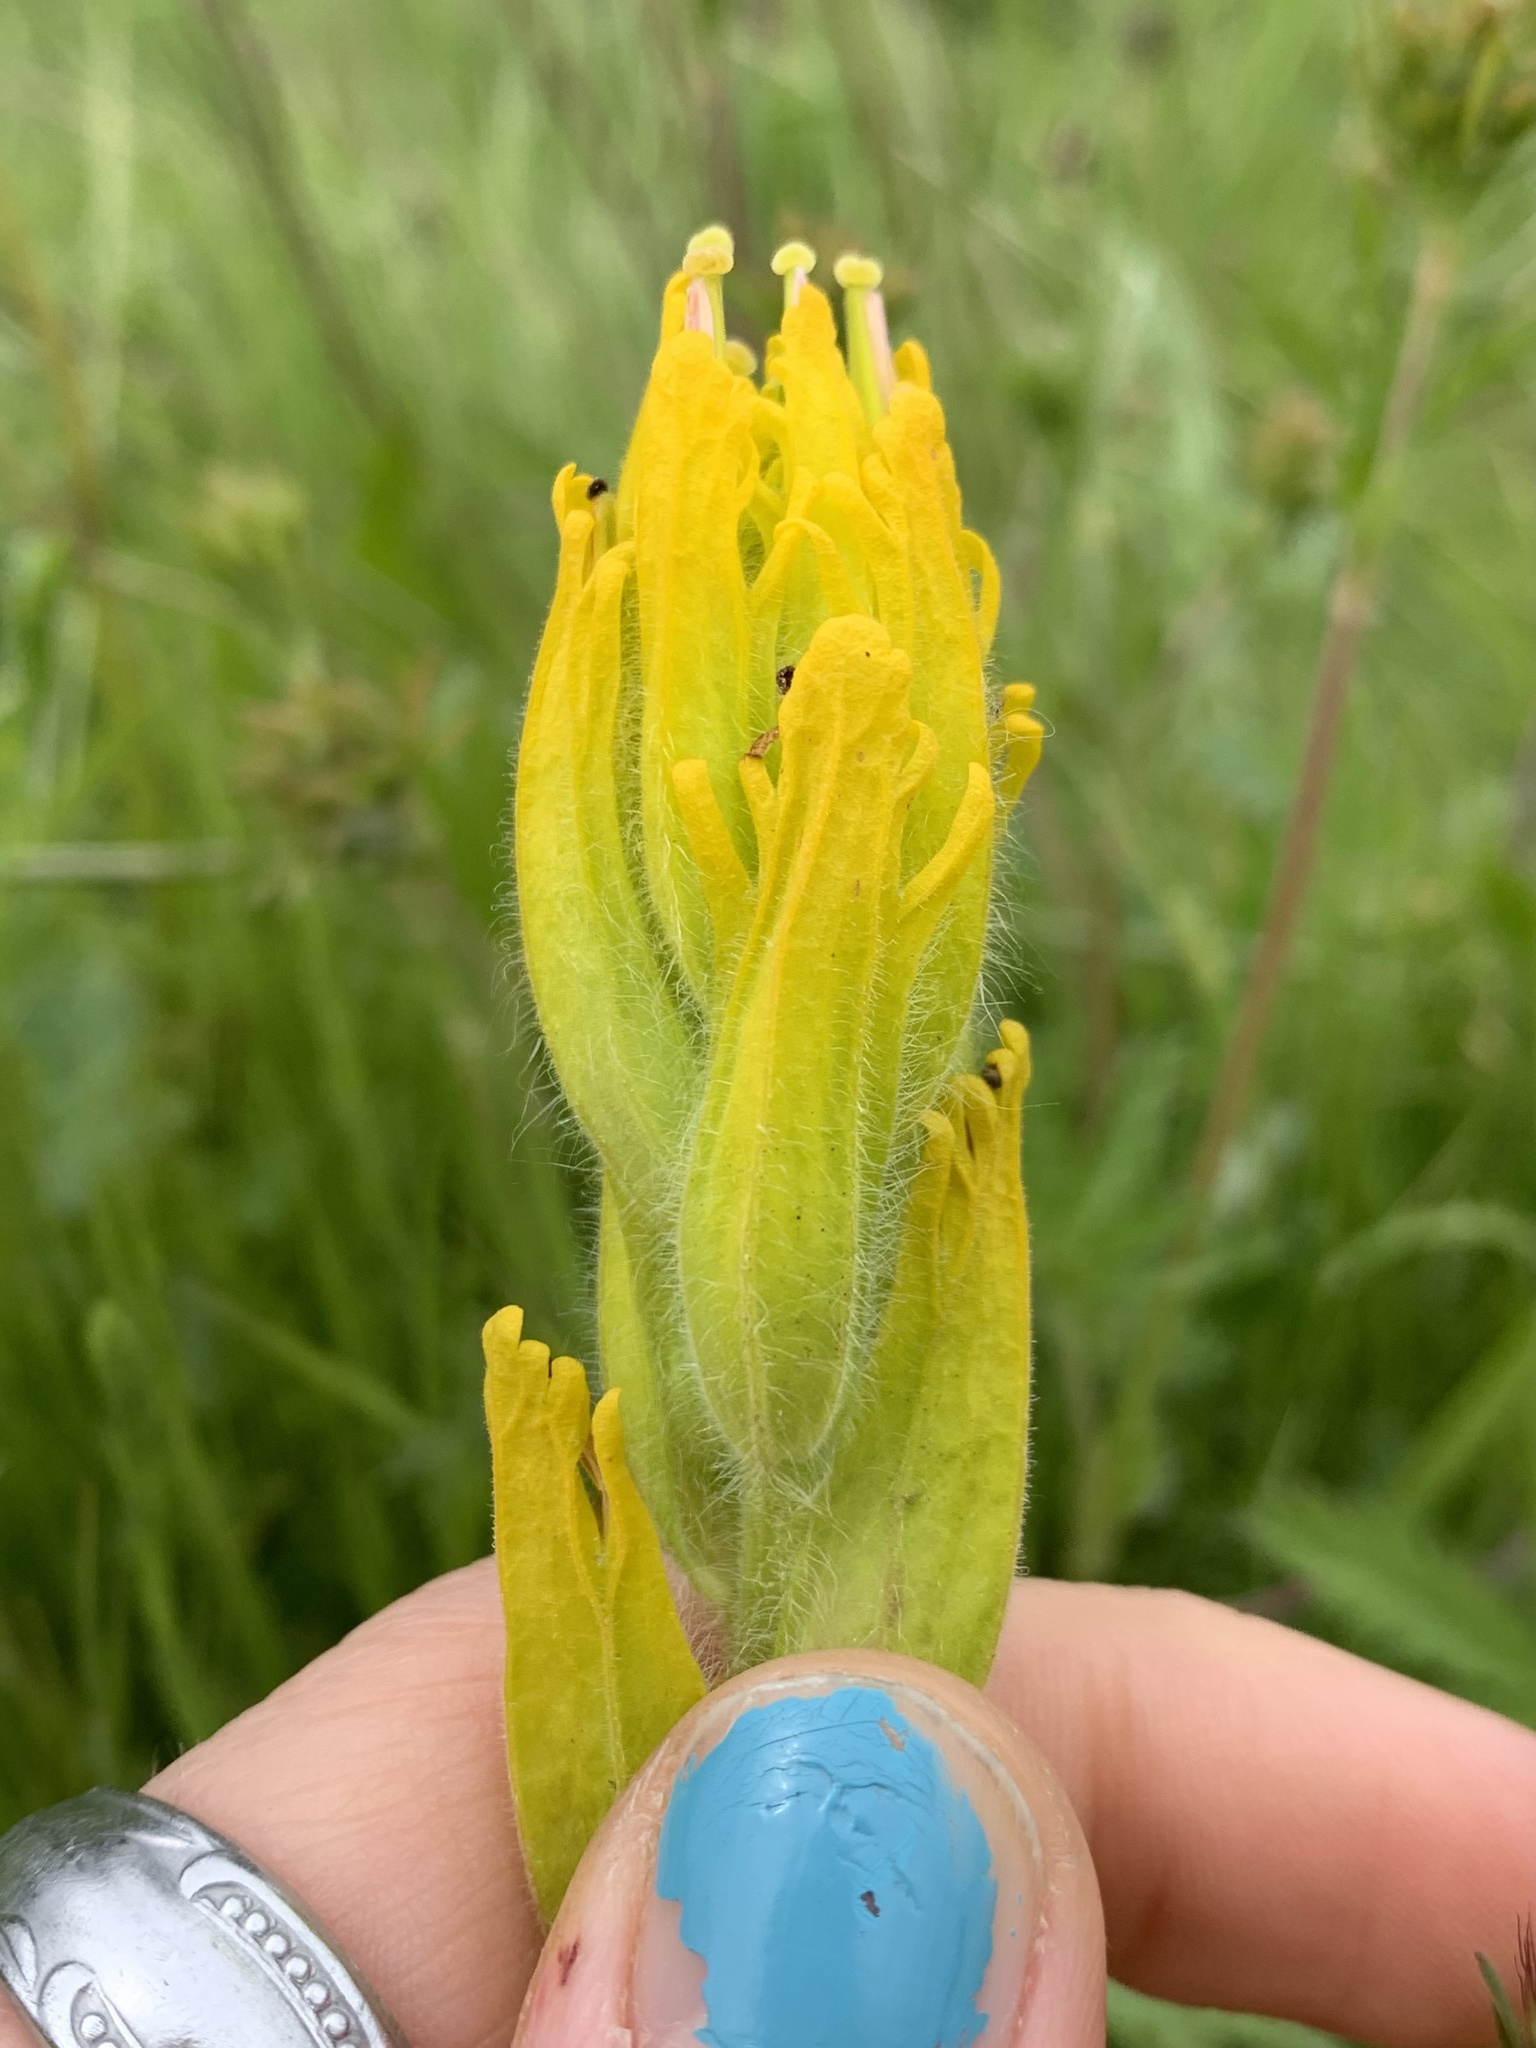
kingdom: Plantae
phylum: Tracheophyta
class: Magnoliopsida
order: Lamiales
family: Orobanchaceae
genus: Castilleja
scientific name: Castilleja levisecta
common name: Golden paintbrush
